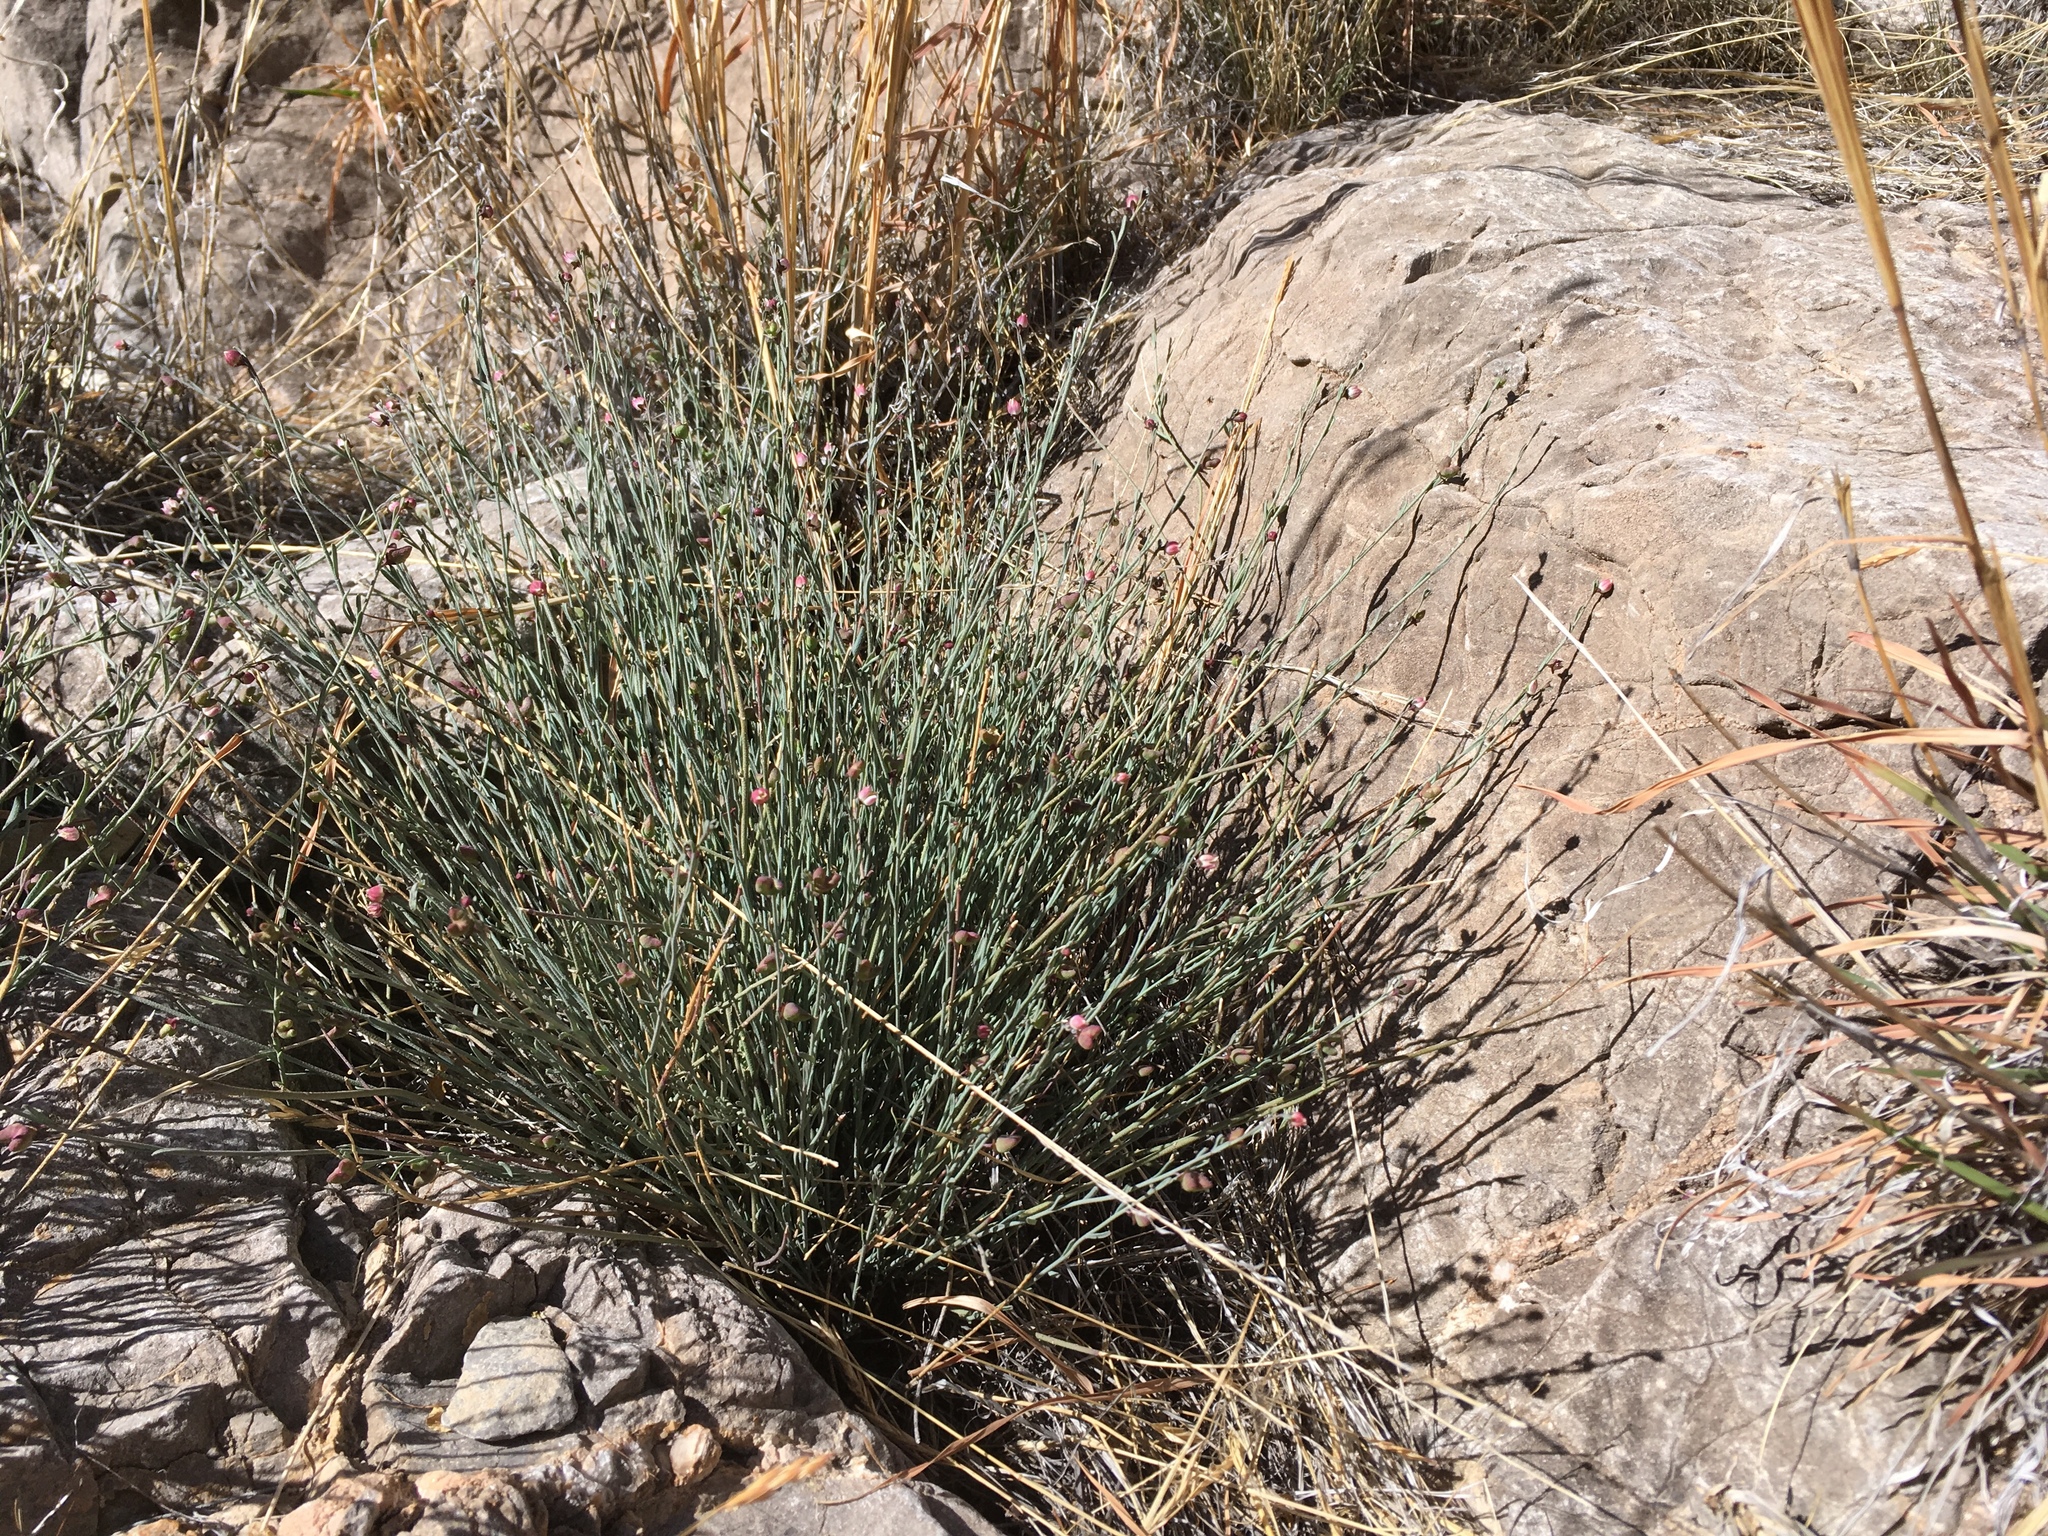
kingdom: Plantae
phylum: Tracheophyta
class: Magnoliopsida
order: Sapindales
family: Rutaceae
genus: Thamnosma
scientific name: Thamnosma texana
